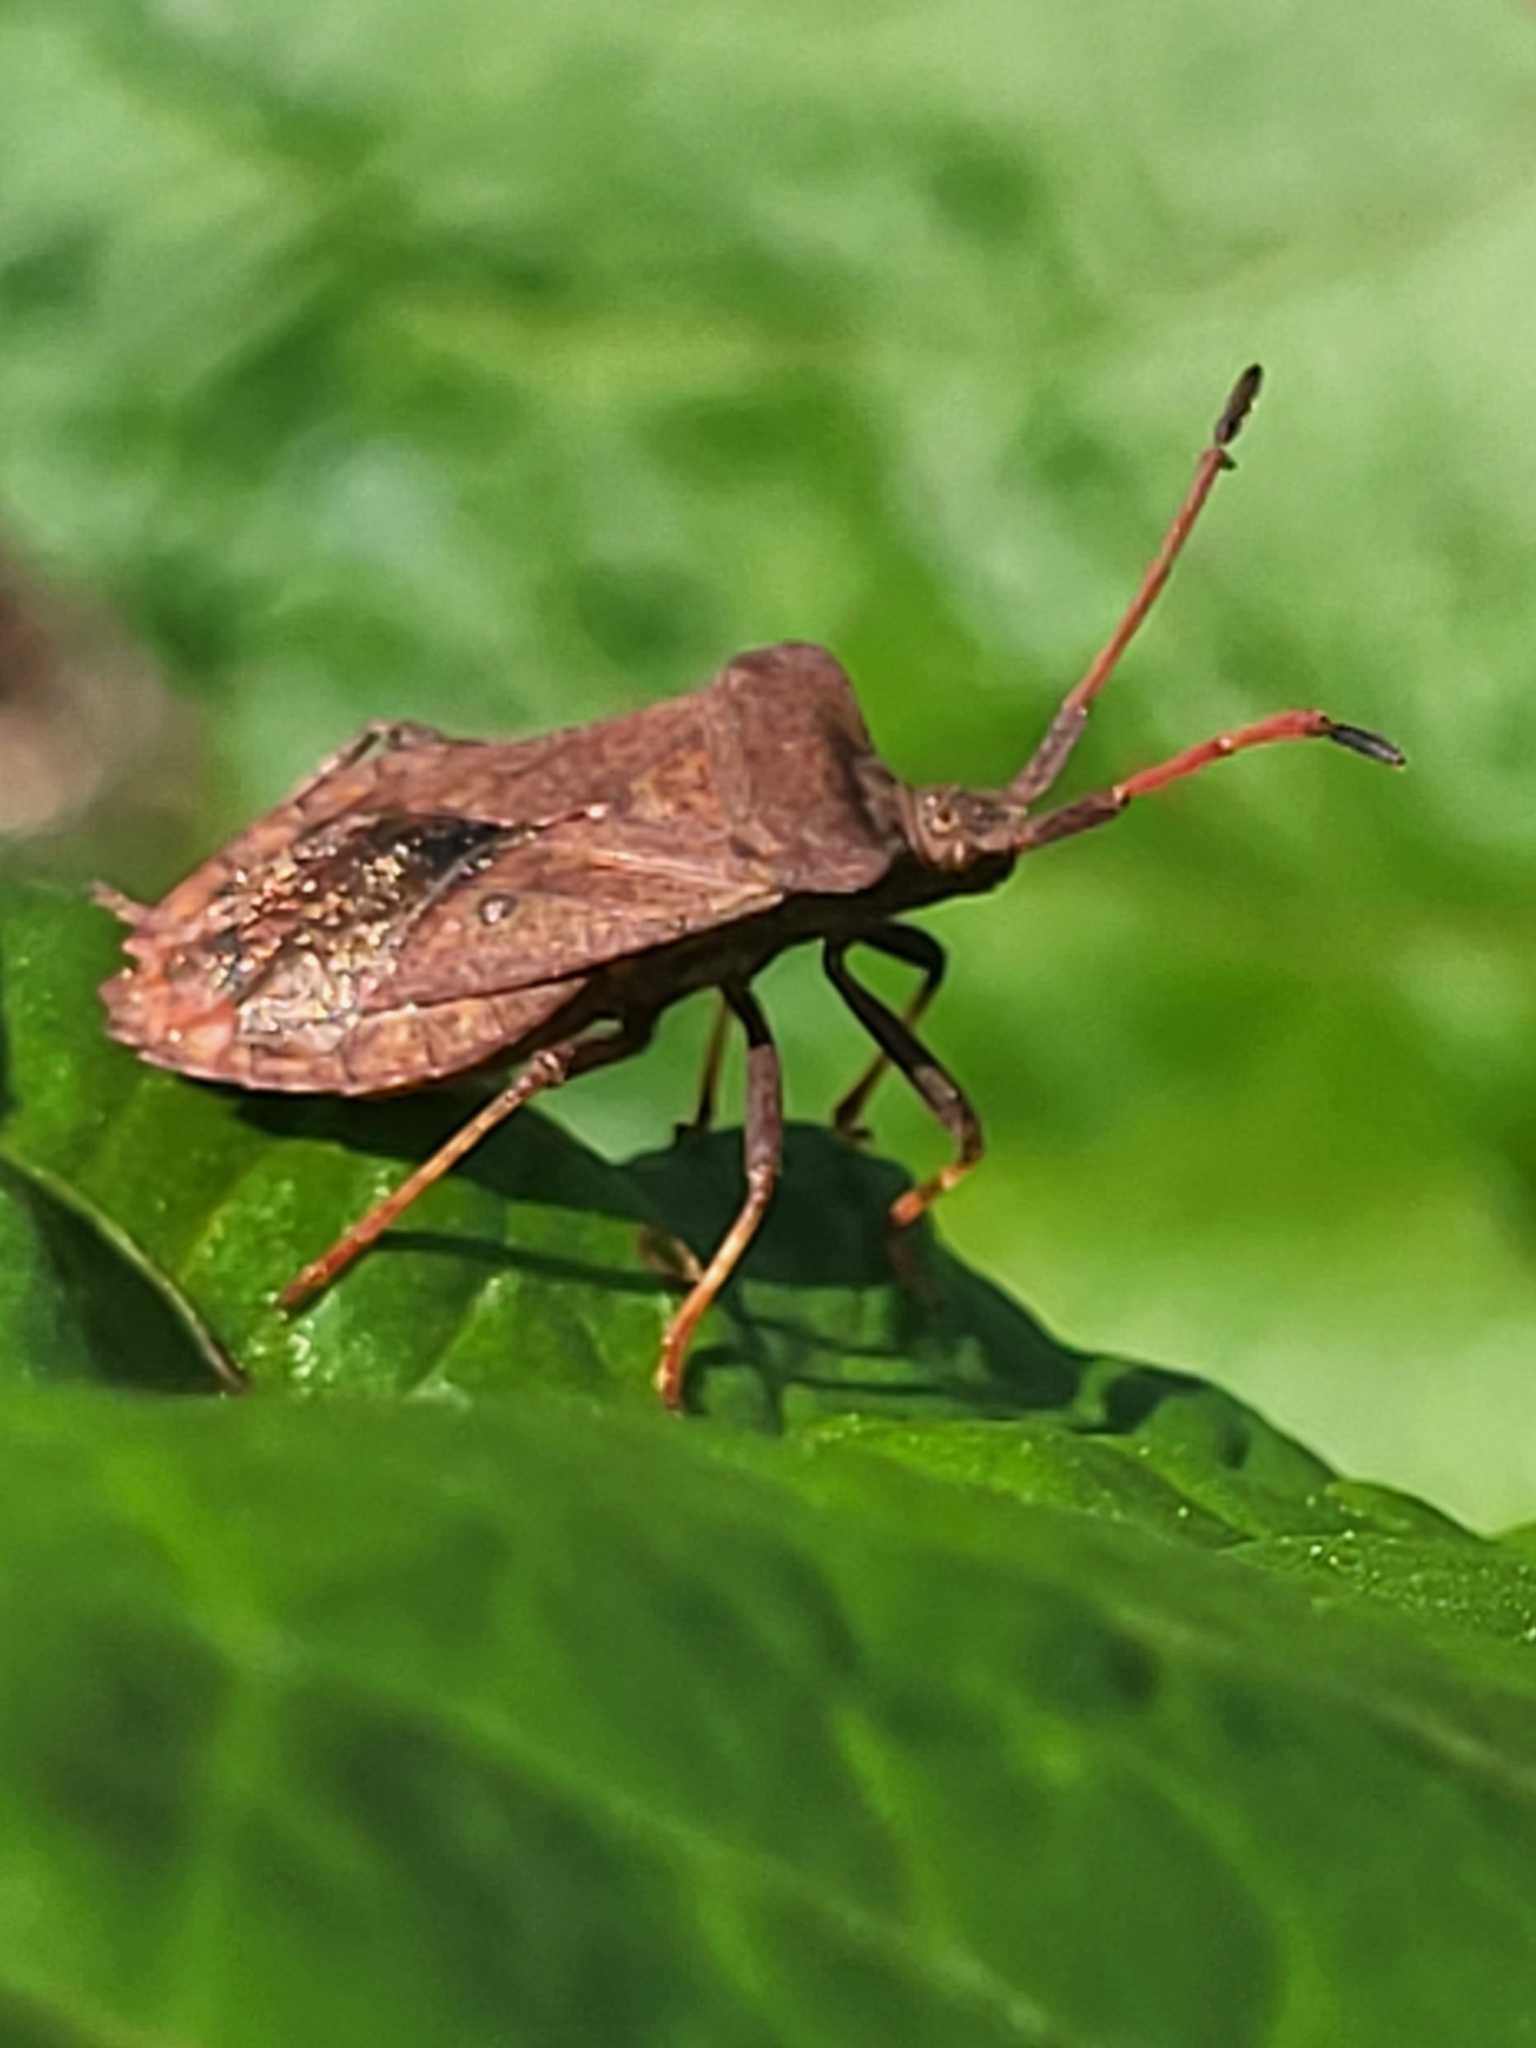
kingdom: Animalia
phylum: Arthropoda
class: Insecta
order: Hemiptera
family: Coreidae
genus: Coreus
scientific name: Coreus marginatus
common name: Dock bug
